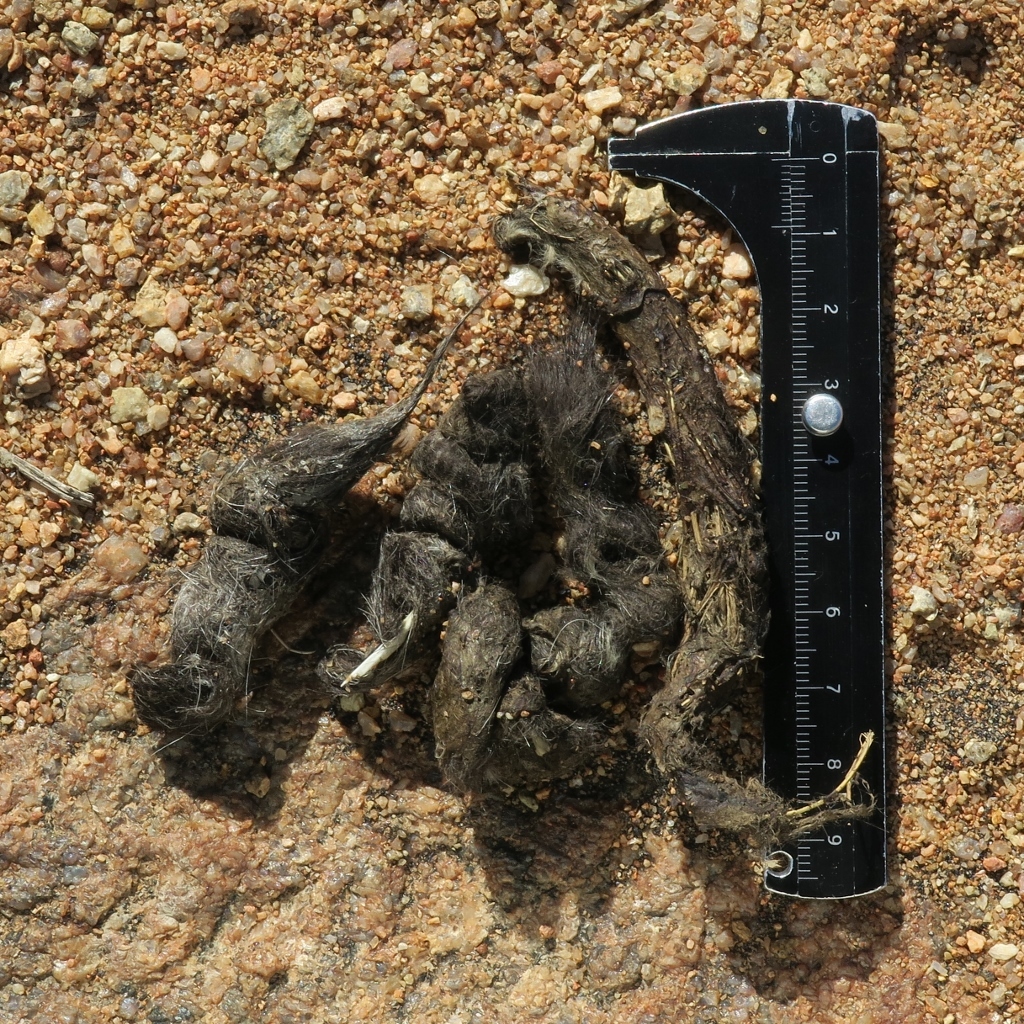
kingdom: Animalia
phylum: Chordata
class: Mammalia
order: Carnivora
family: Felidae
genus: Caracal
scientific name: Caracal caracal
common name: Caracal
